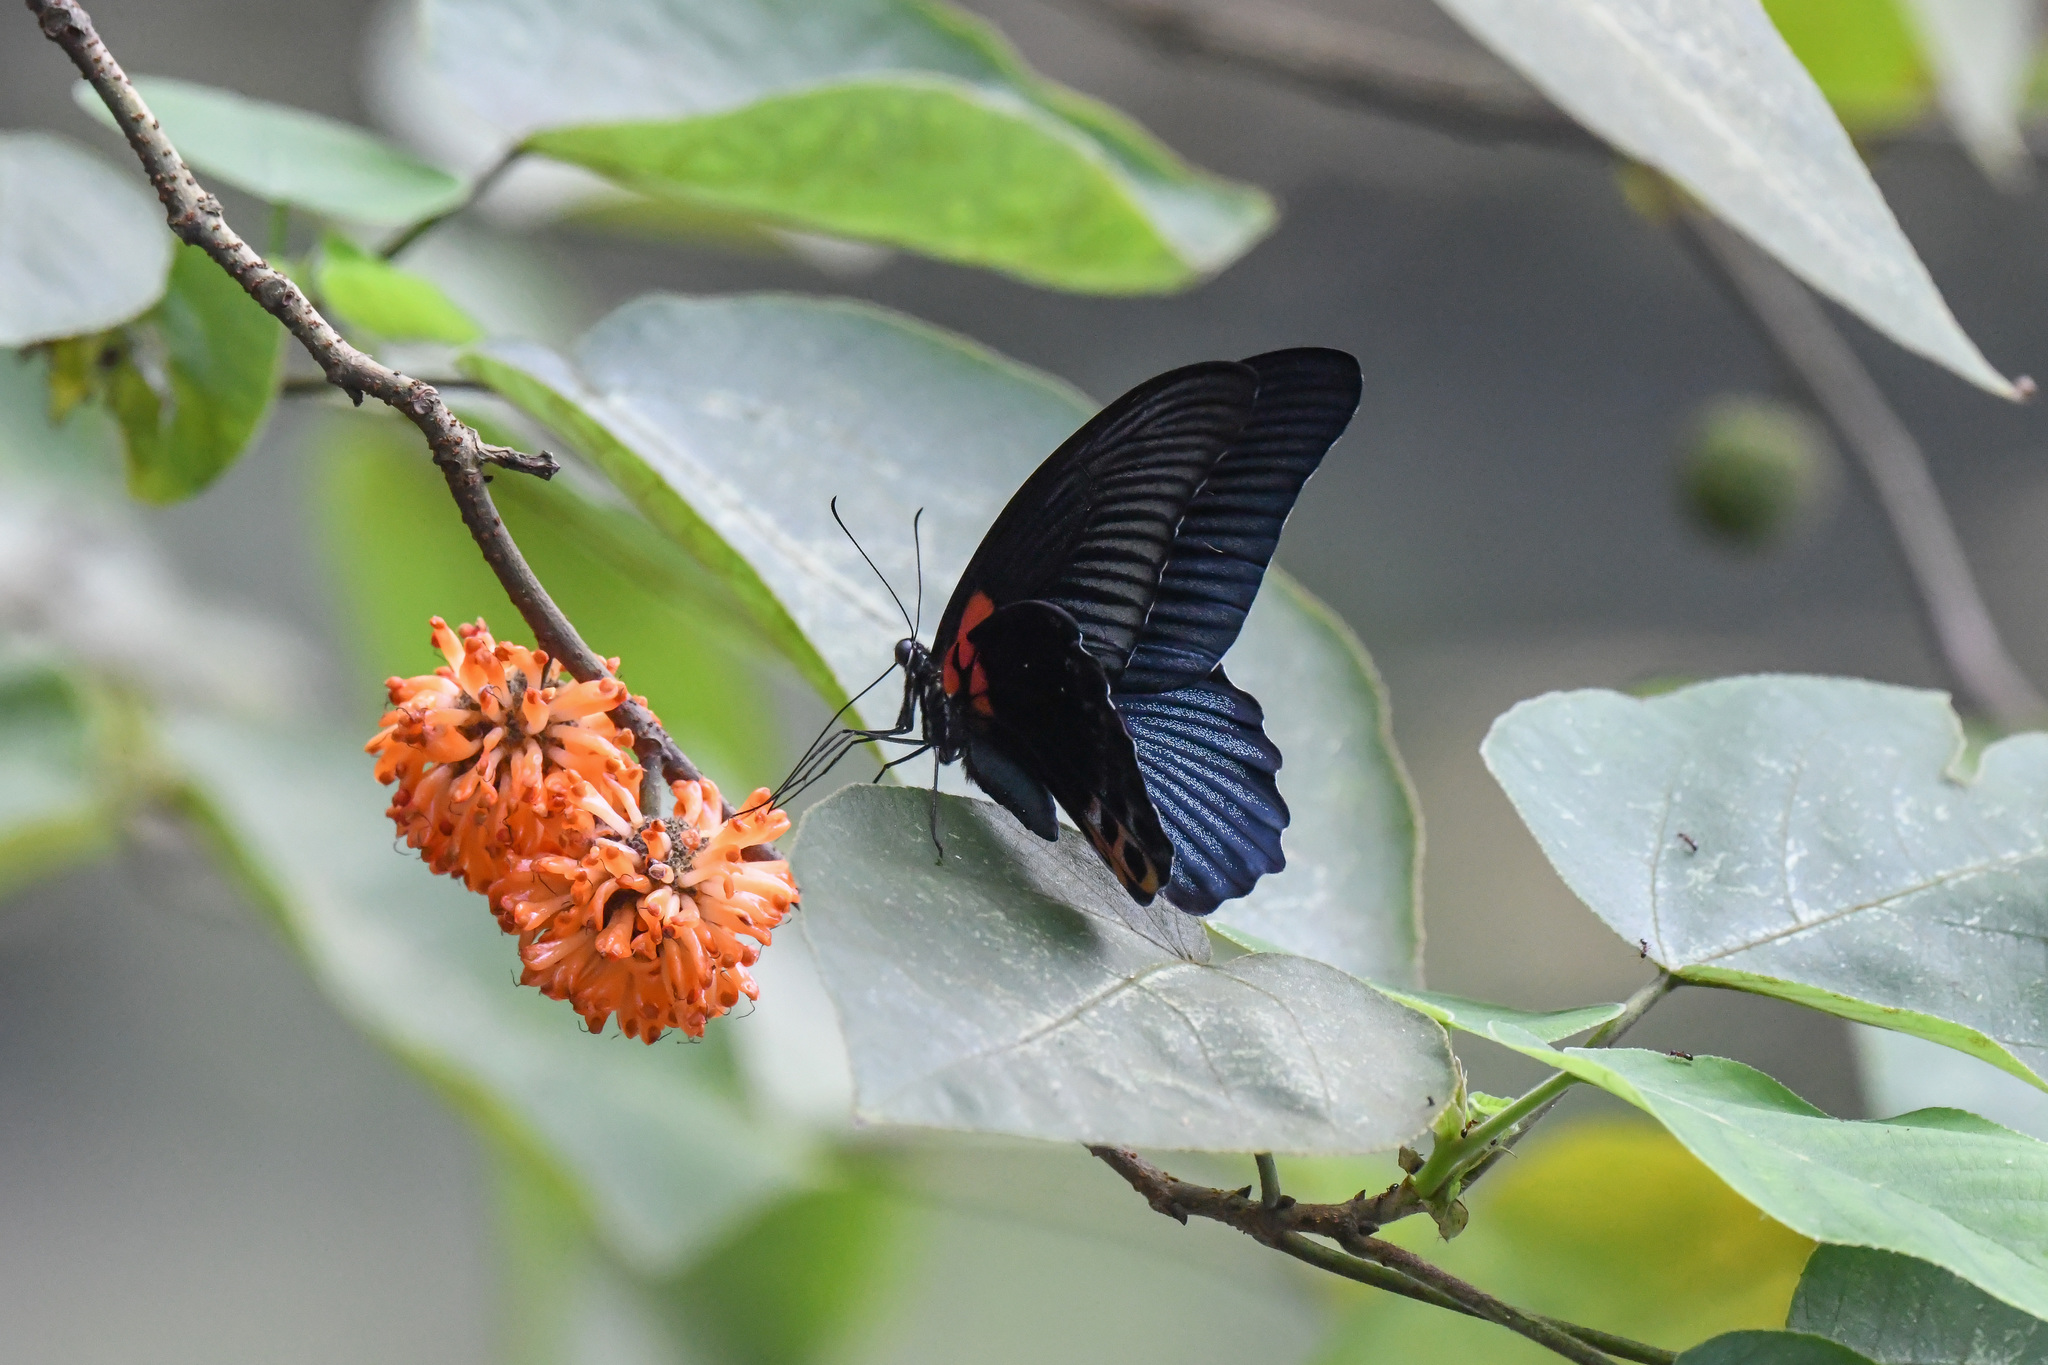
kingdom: Animalia
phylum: Arthropoda
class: Insecta
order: Lepidoptera
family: Papilionidae
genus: Papilio
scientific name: Papilio memnon
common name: Great mormon
